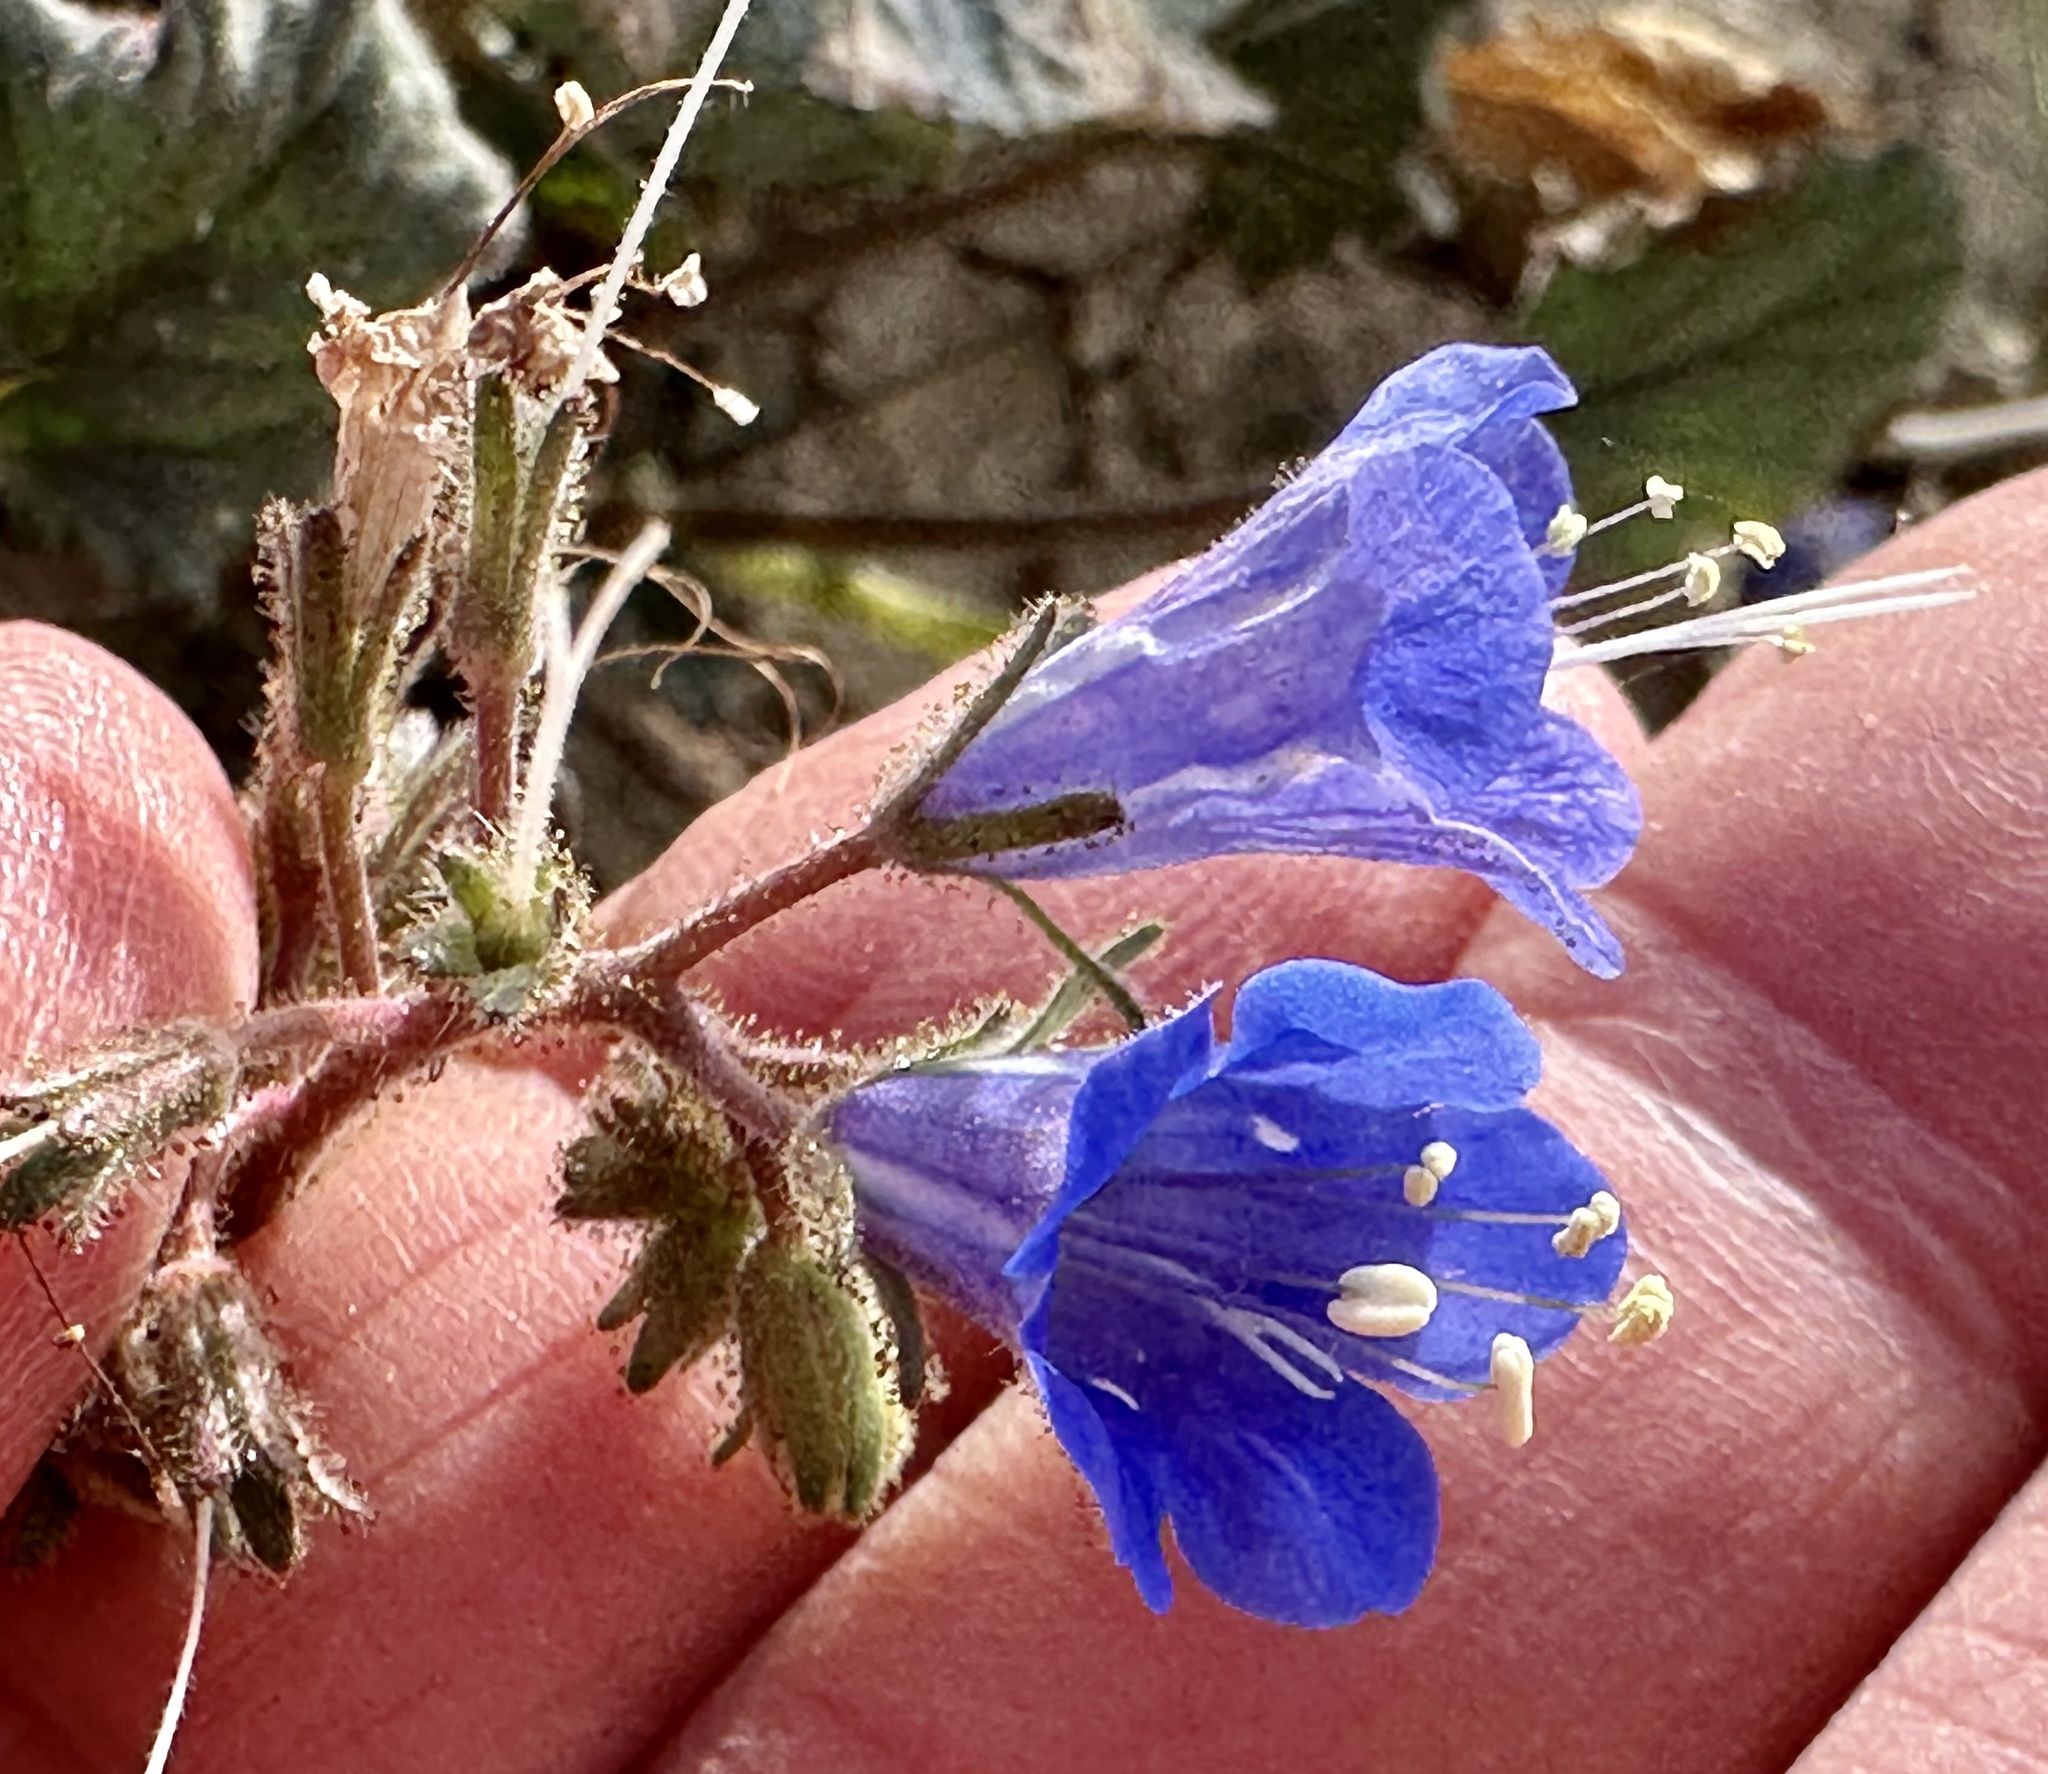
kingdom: Plantae
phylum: Tracheophyta
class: Magnoliopsida
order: Boraginales
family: Hydrophyllaceae
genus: Phacelia
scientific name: Phacelia campanularia
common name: California bluebell
